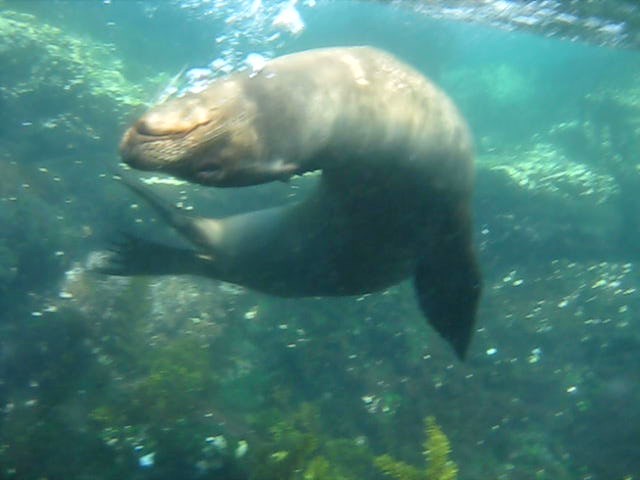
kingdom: Animalia
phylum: Chordata
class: Mammalia
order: Carnivora
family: Otariidae
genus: Zalophus
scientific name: Zalophus wollebaeki
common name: Galapagos sea lion
